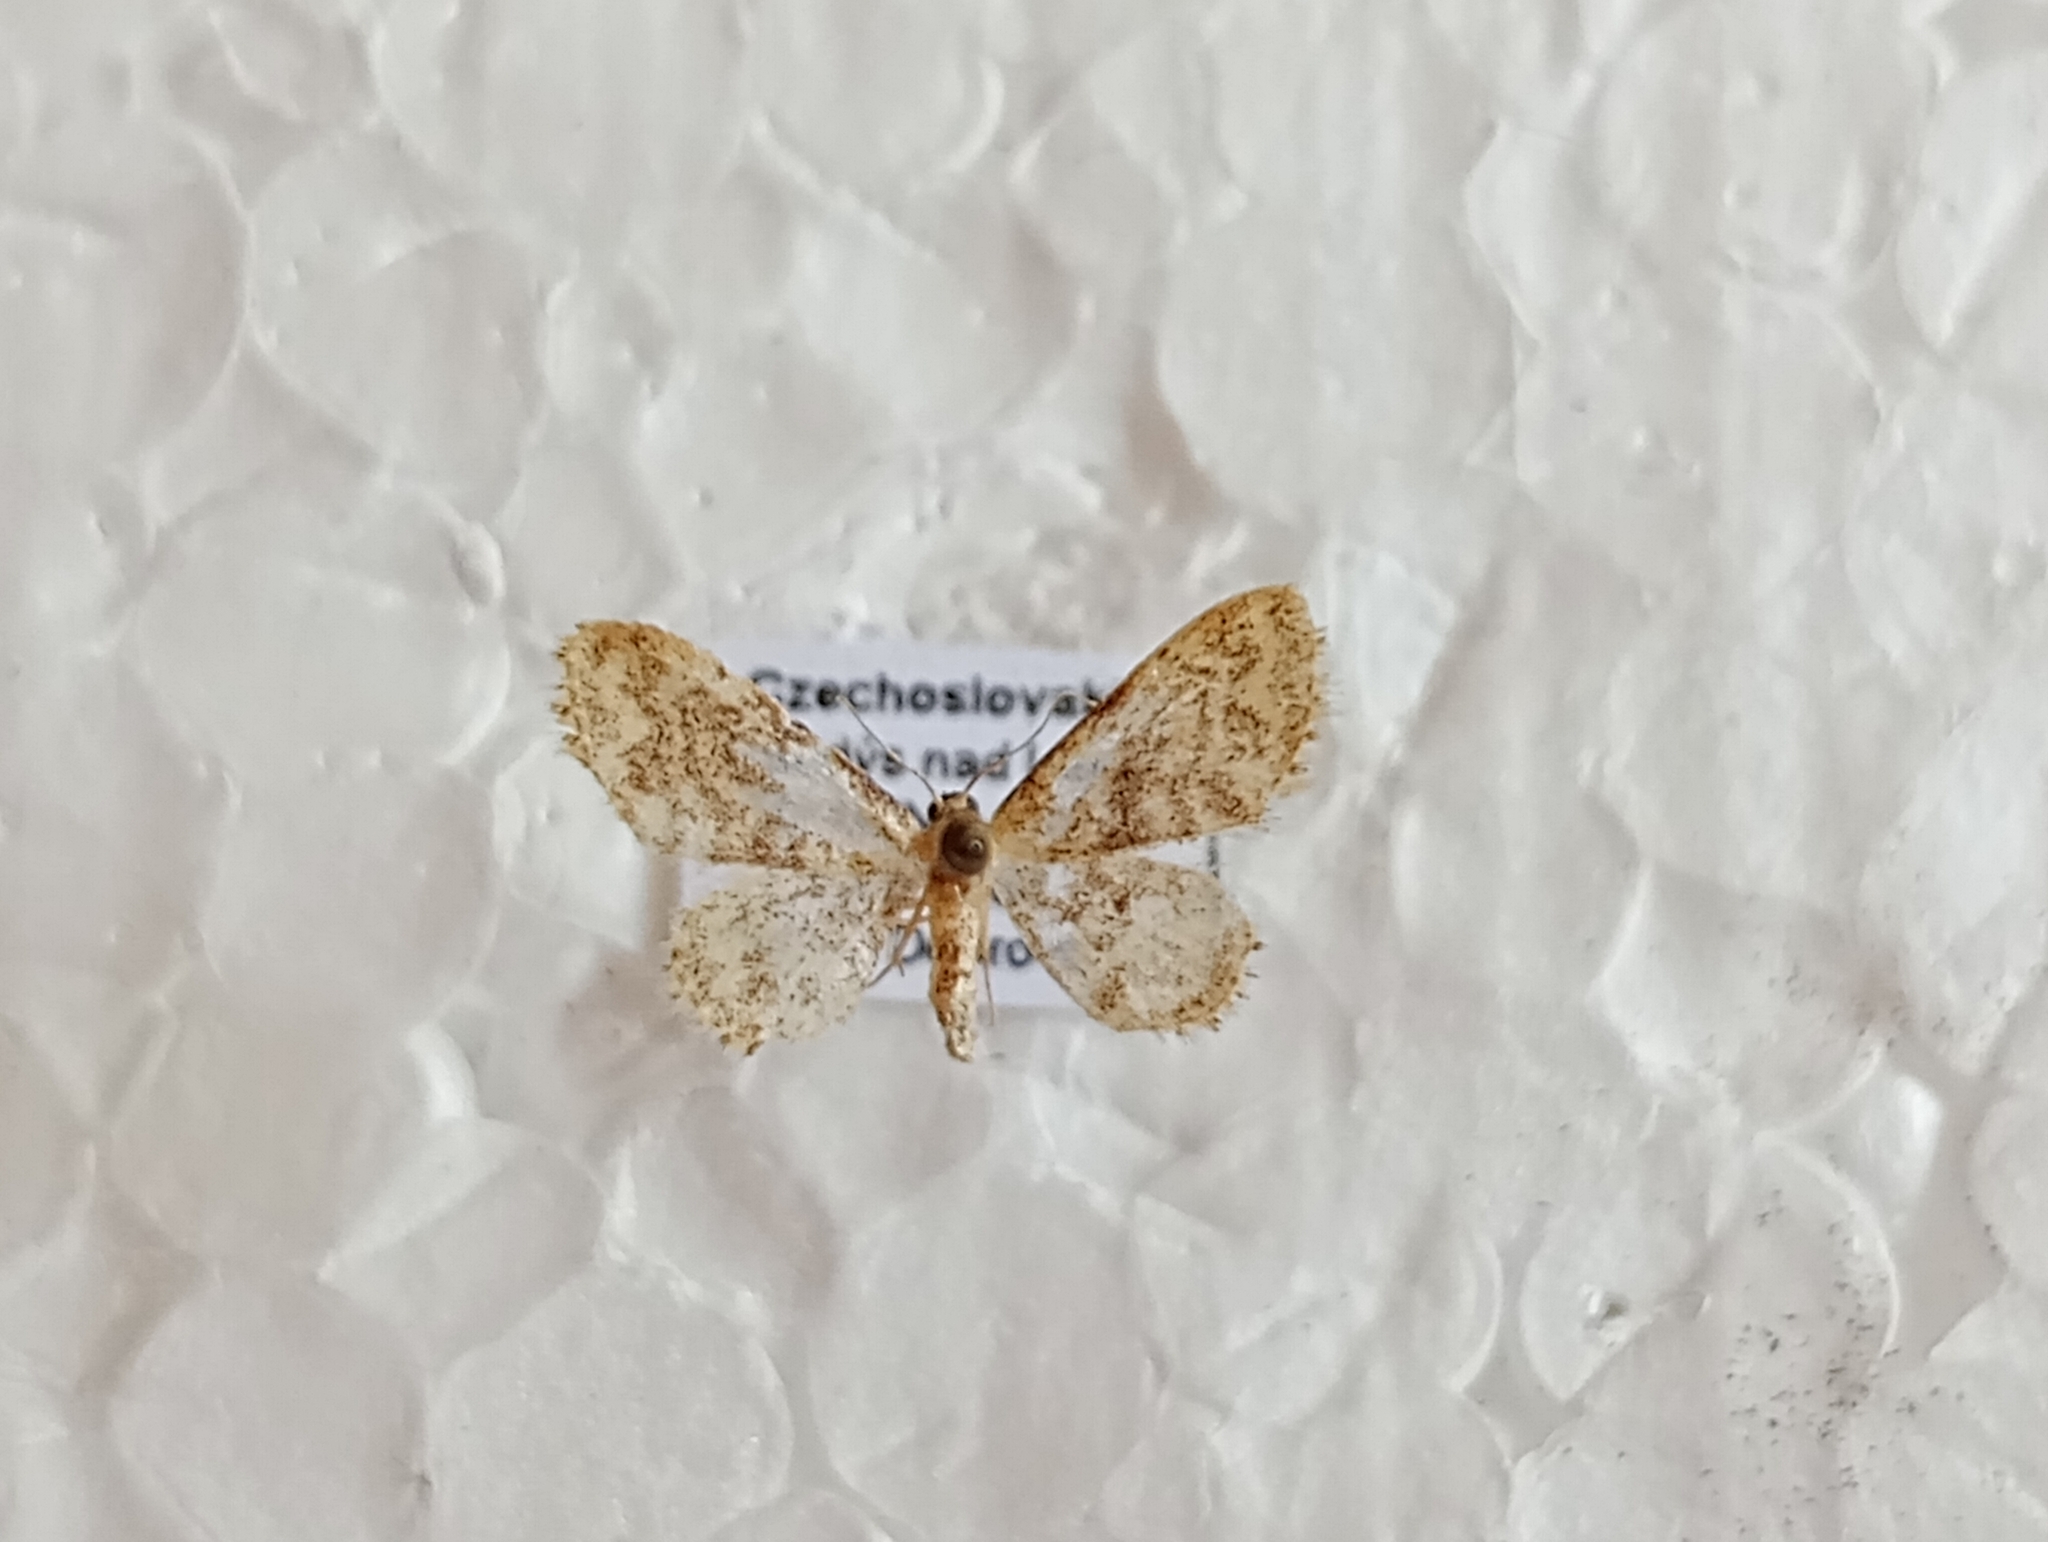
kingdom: Animalia
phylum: Arthropoda
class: Insecta
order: Lepidoptera
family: Geometridae
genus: Idaea
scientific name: Idaea inquinata
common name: Rusty wave
